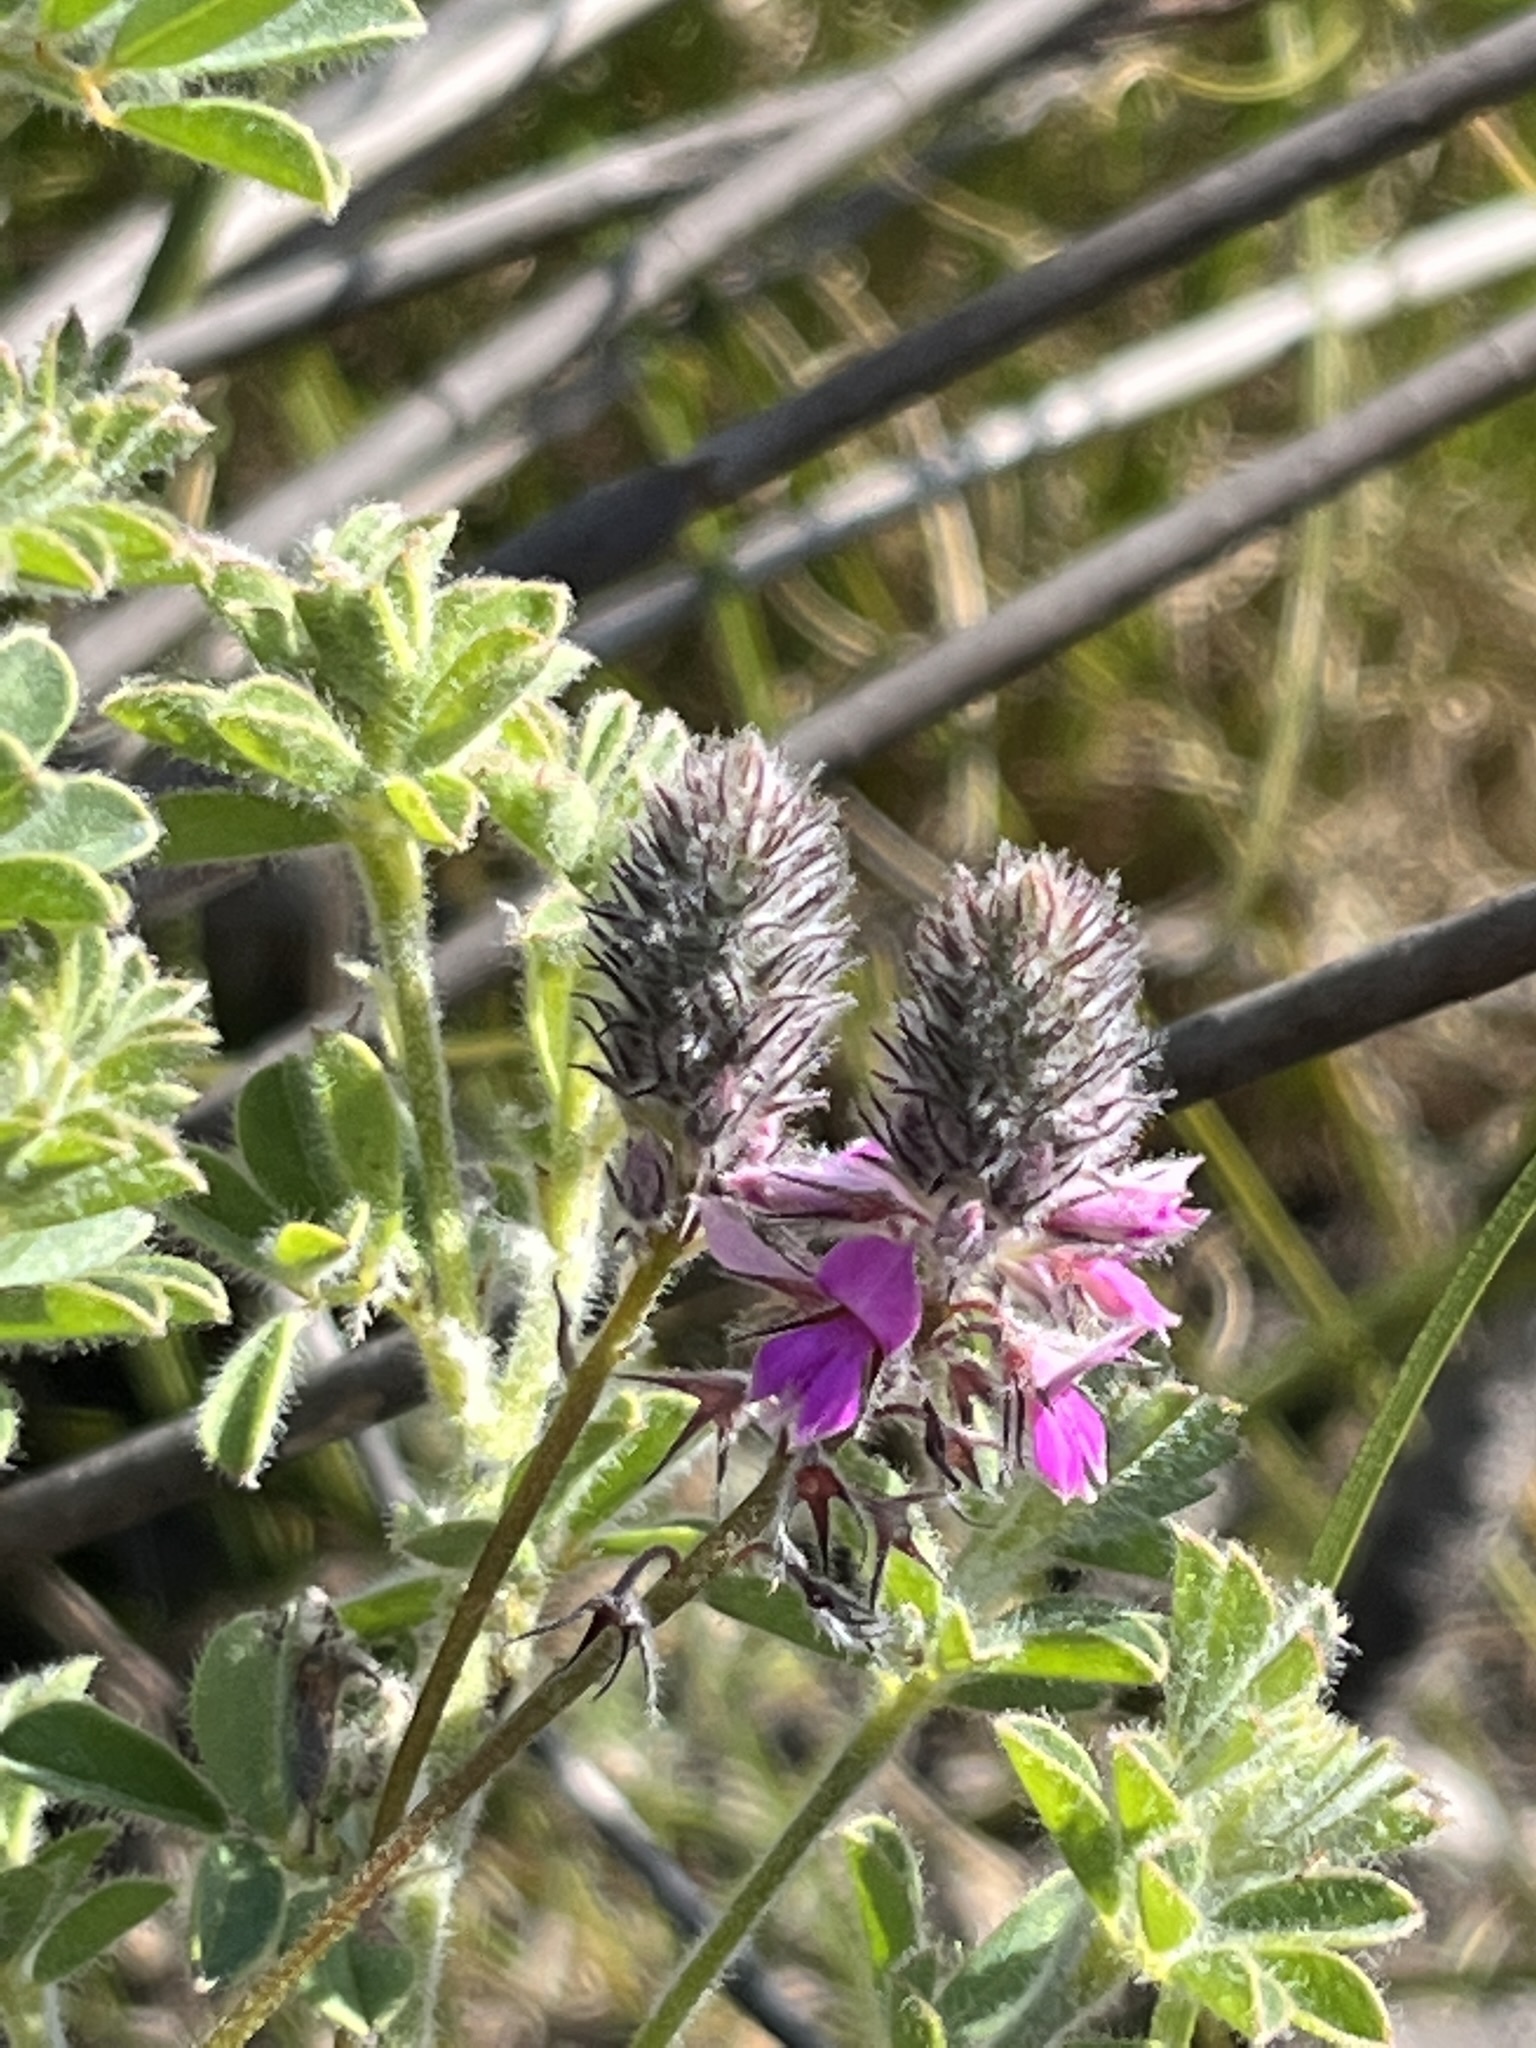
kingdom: Plantae
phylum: Tracheophyta
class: Magnoliopsida
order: Fabales
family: Fabaceae
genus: Indigofera
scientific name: Indigofera alopecuroides
